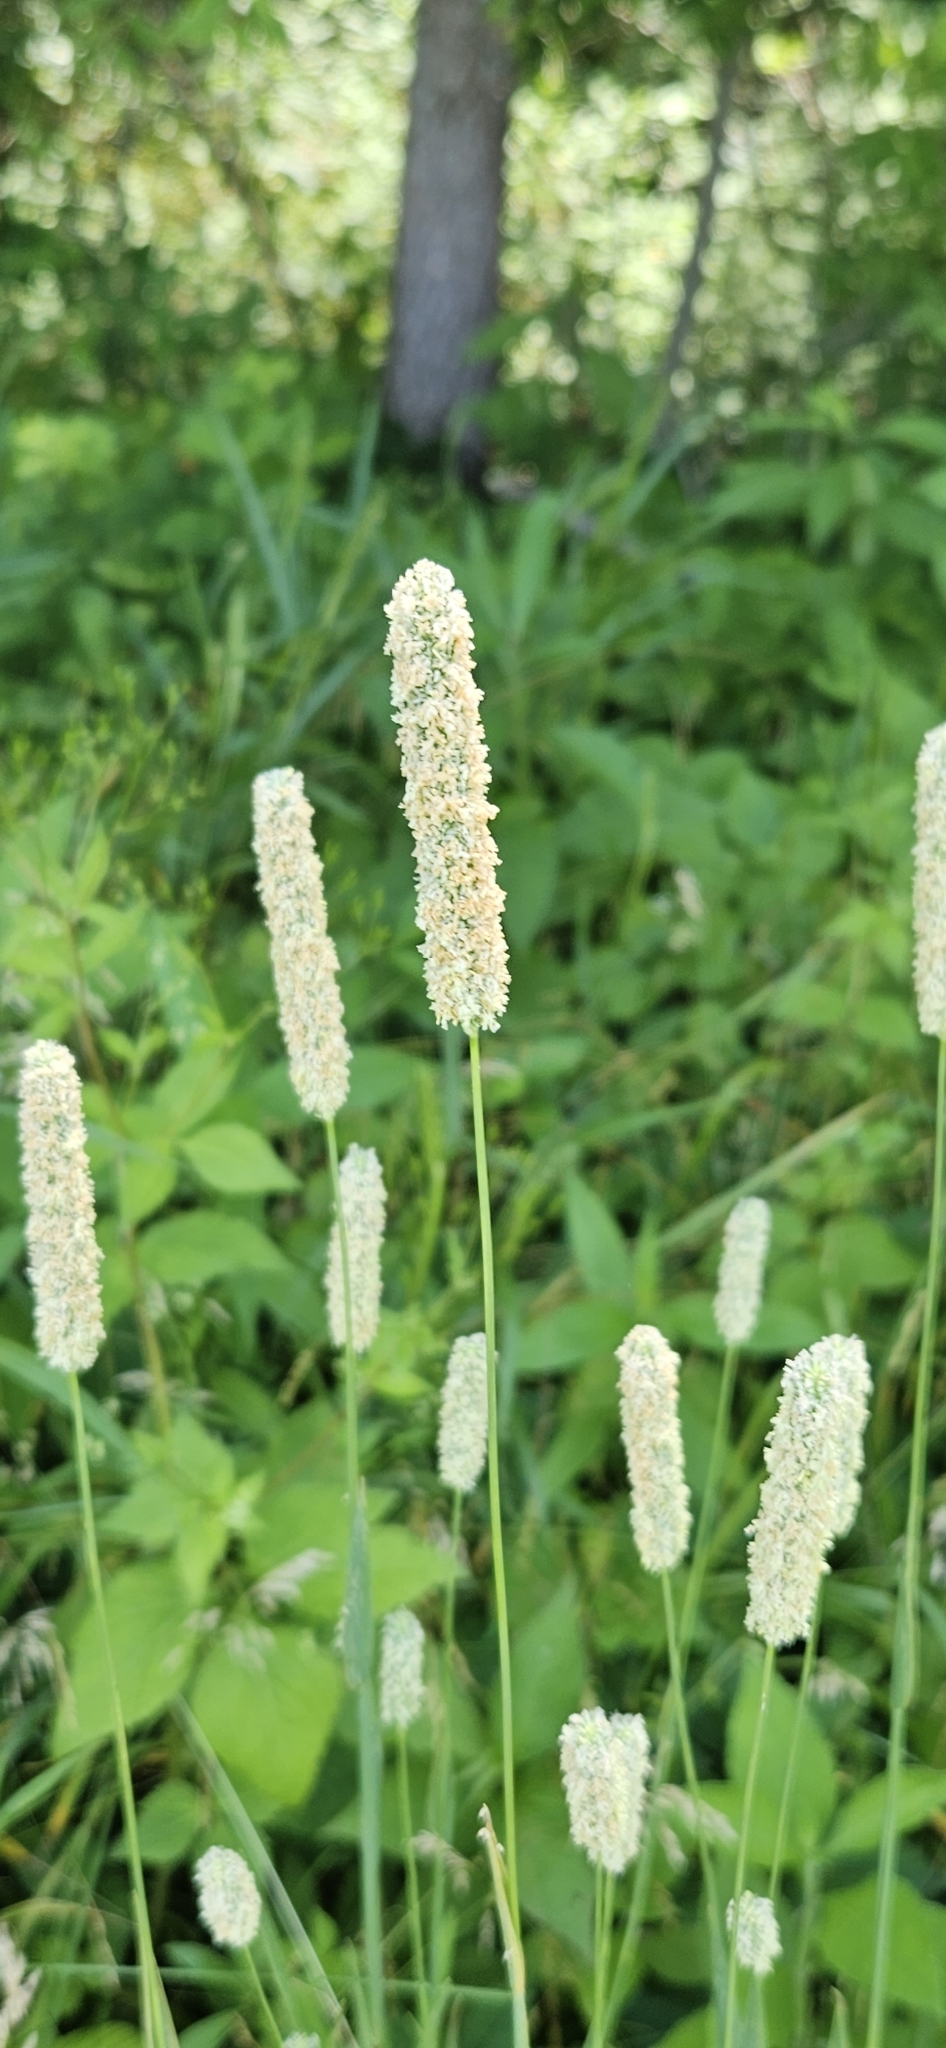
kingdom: Plantae
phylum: Tracheophyta
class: Liliopsida
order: Poales
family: Poaceae
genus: Phleum
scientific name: Phleum pratense
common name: Timothy grass
